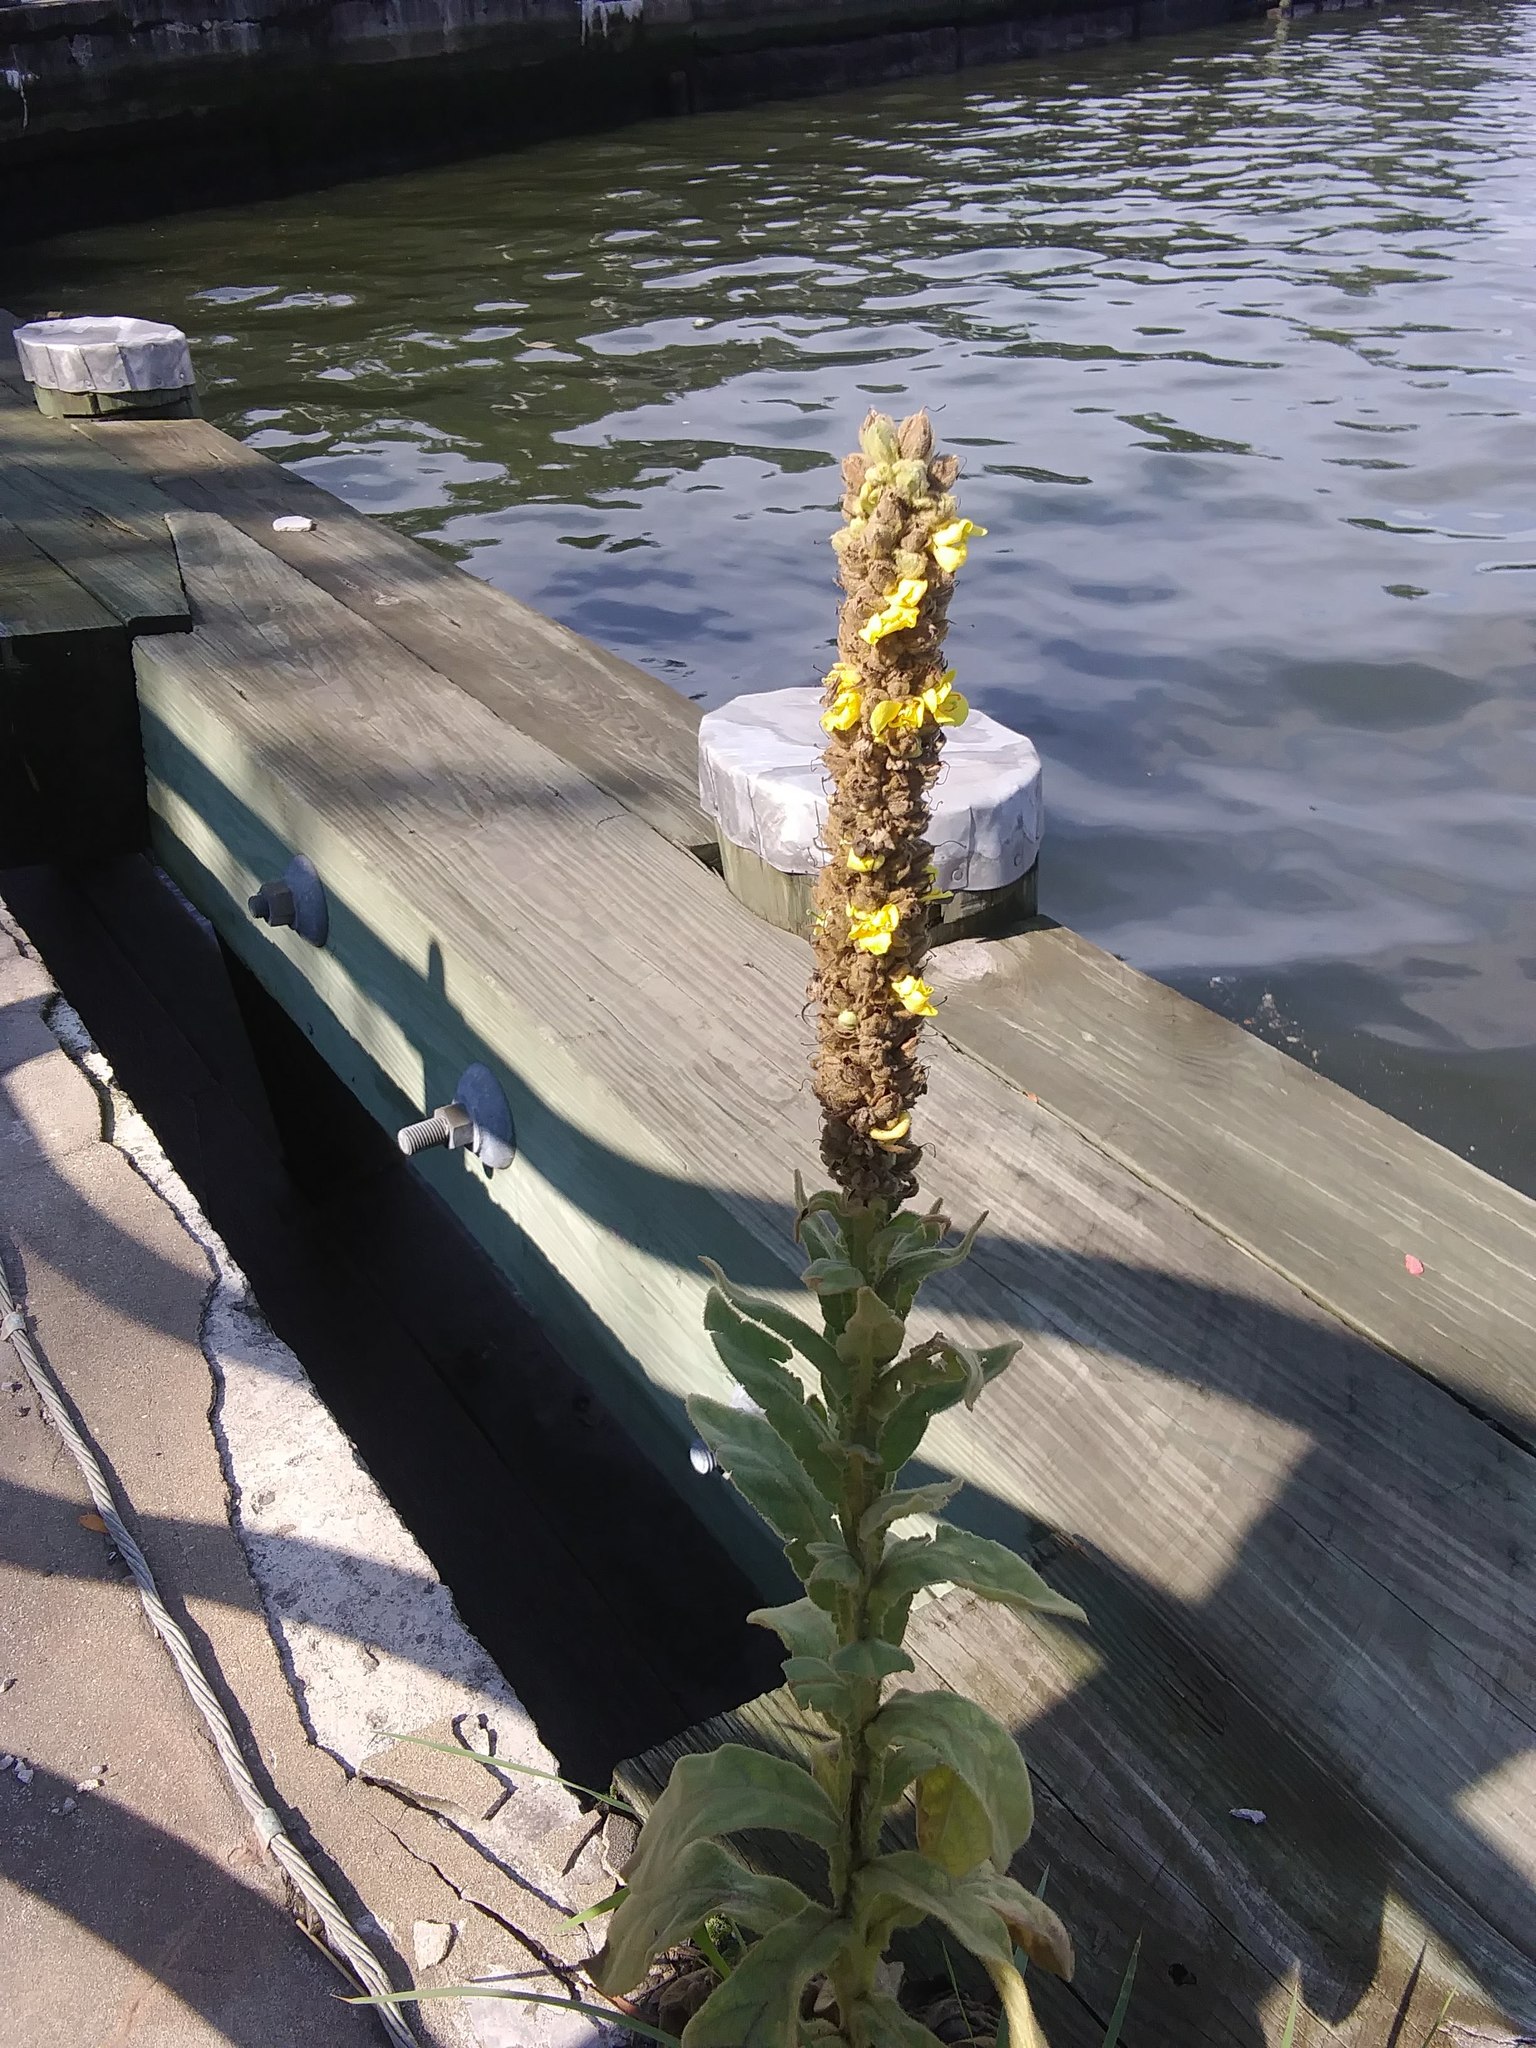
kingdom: Plantae
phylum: Tracheophyta
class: Magnoliopsida
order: Lamiales
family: Scrophulariaceae
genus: Verbascum
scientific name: Verbascum thapsus
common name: Common mullein
